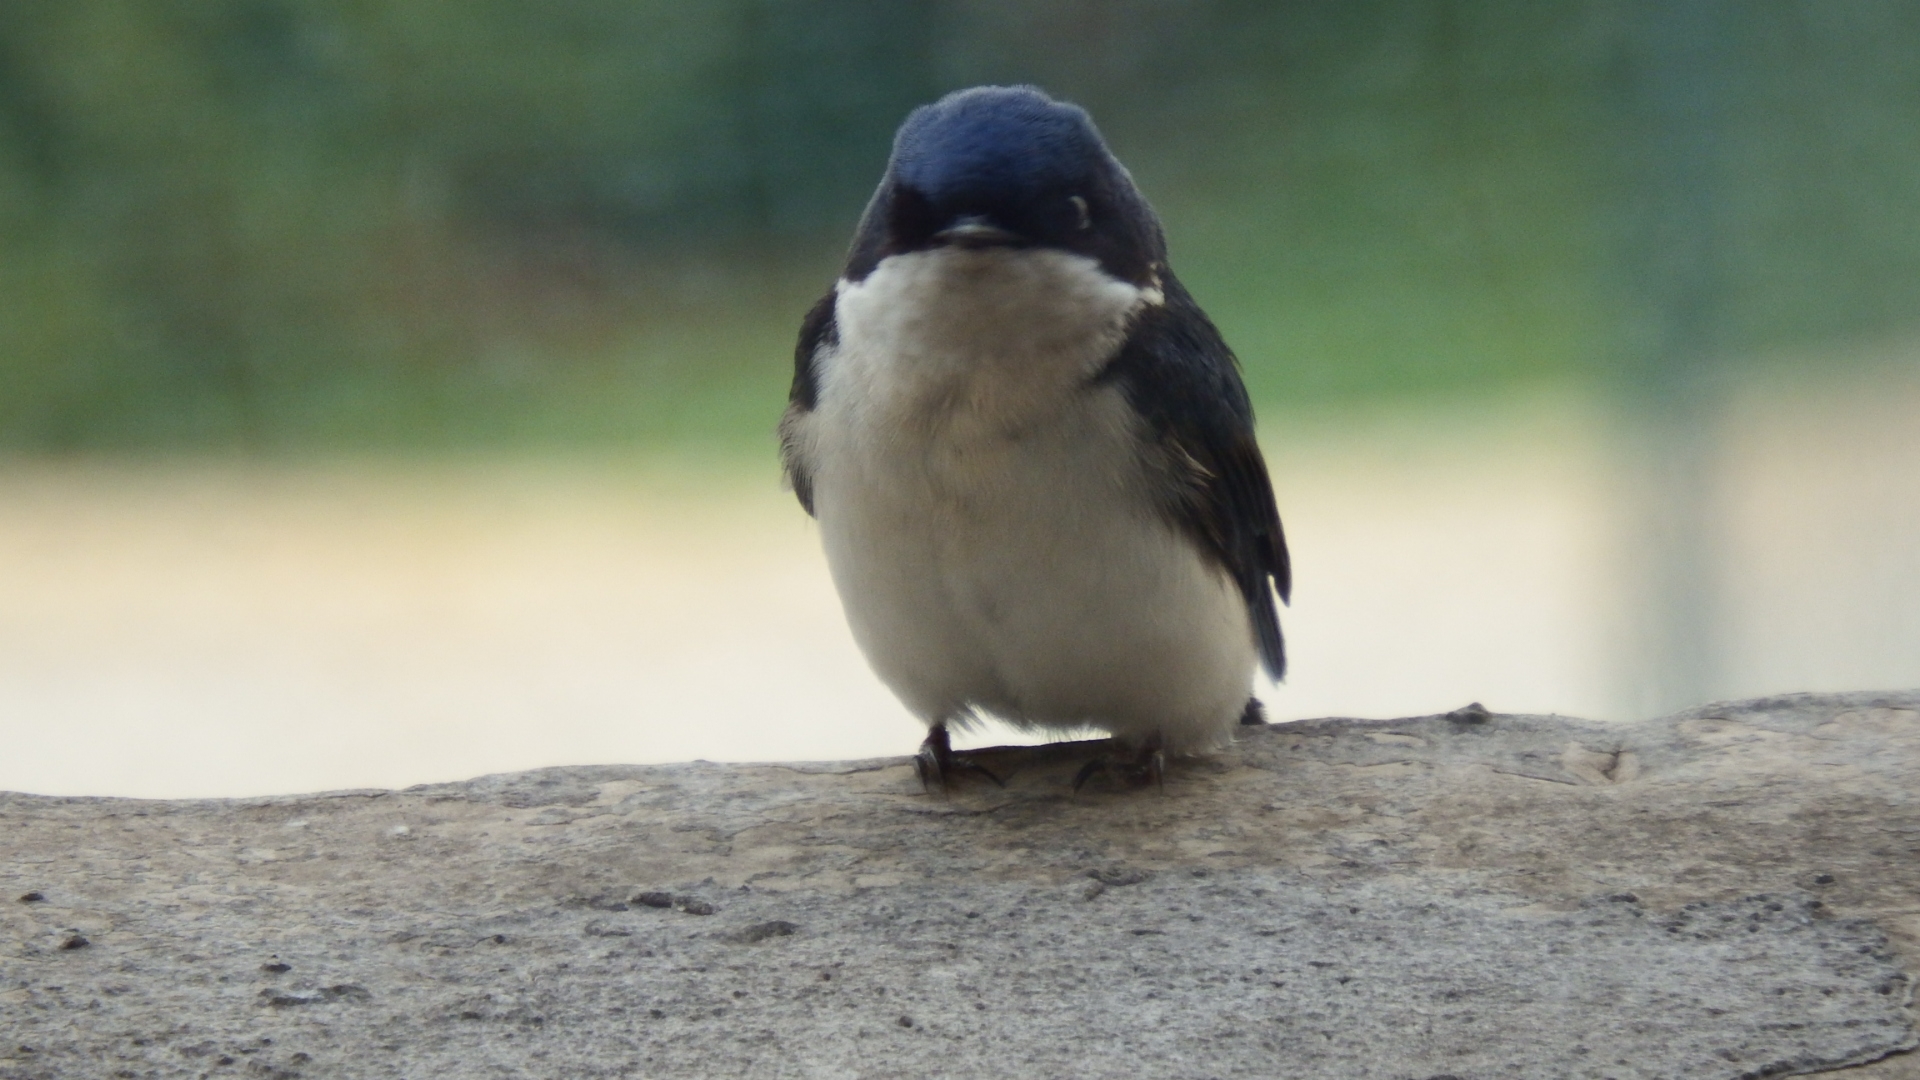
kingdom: Animalia
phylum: Chordata
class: Aves
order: Passeriformes
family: Hirundinidae
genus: Notiochelidon
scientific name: Notiochelidon cyanoleuca
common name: Blue-and-white swallow
